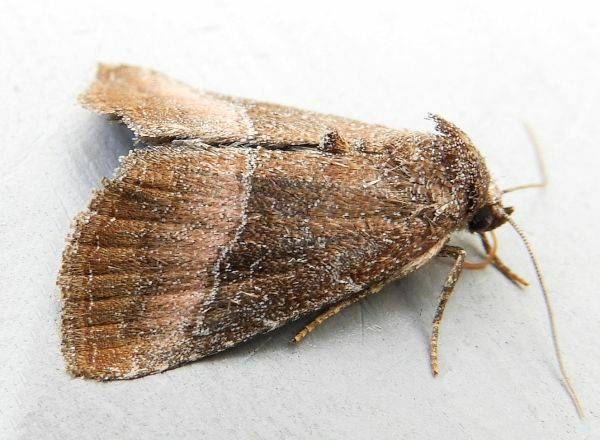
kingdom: Animalia
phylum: Arthropoda
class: Insecta
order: Lepidoptera
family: Noctuidae
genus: Ogdoconta
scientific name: Ogdoconta cinereola
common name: Common pinkband
